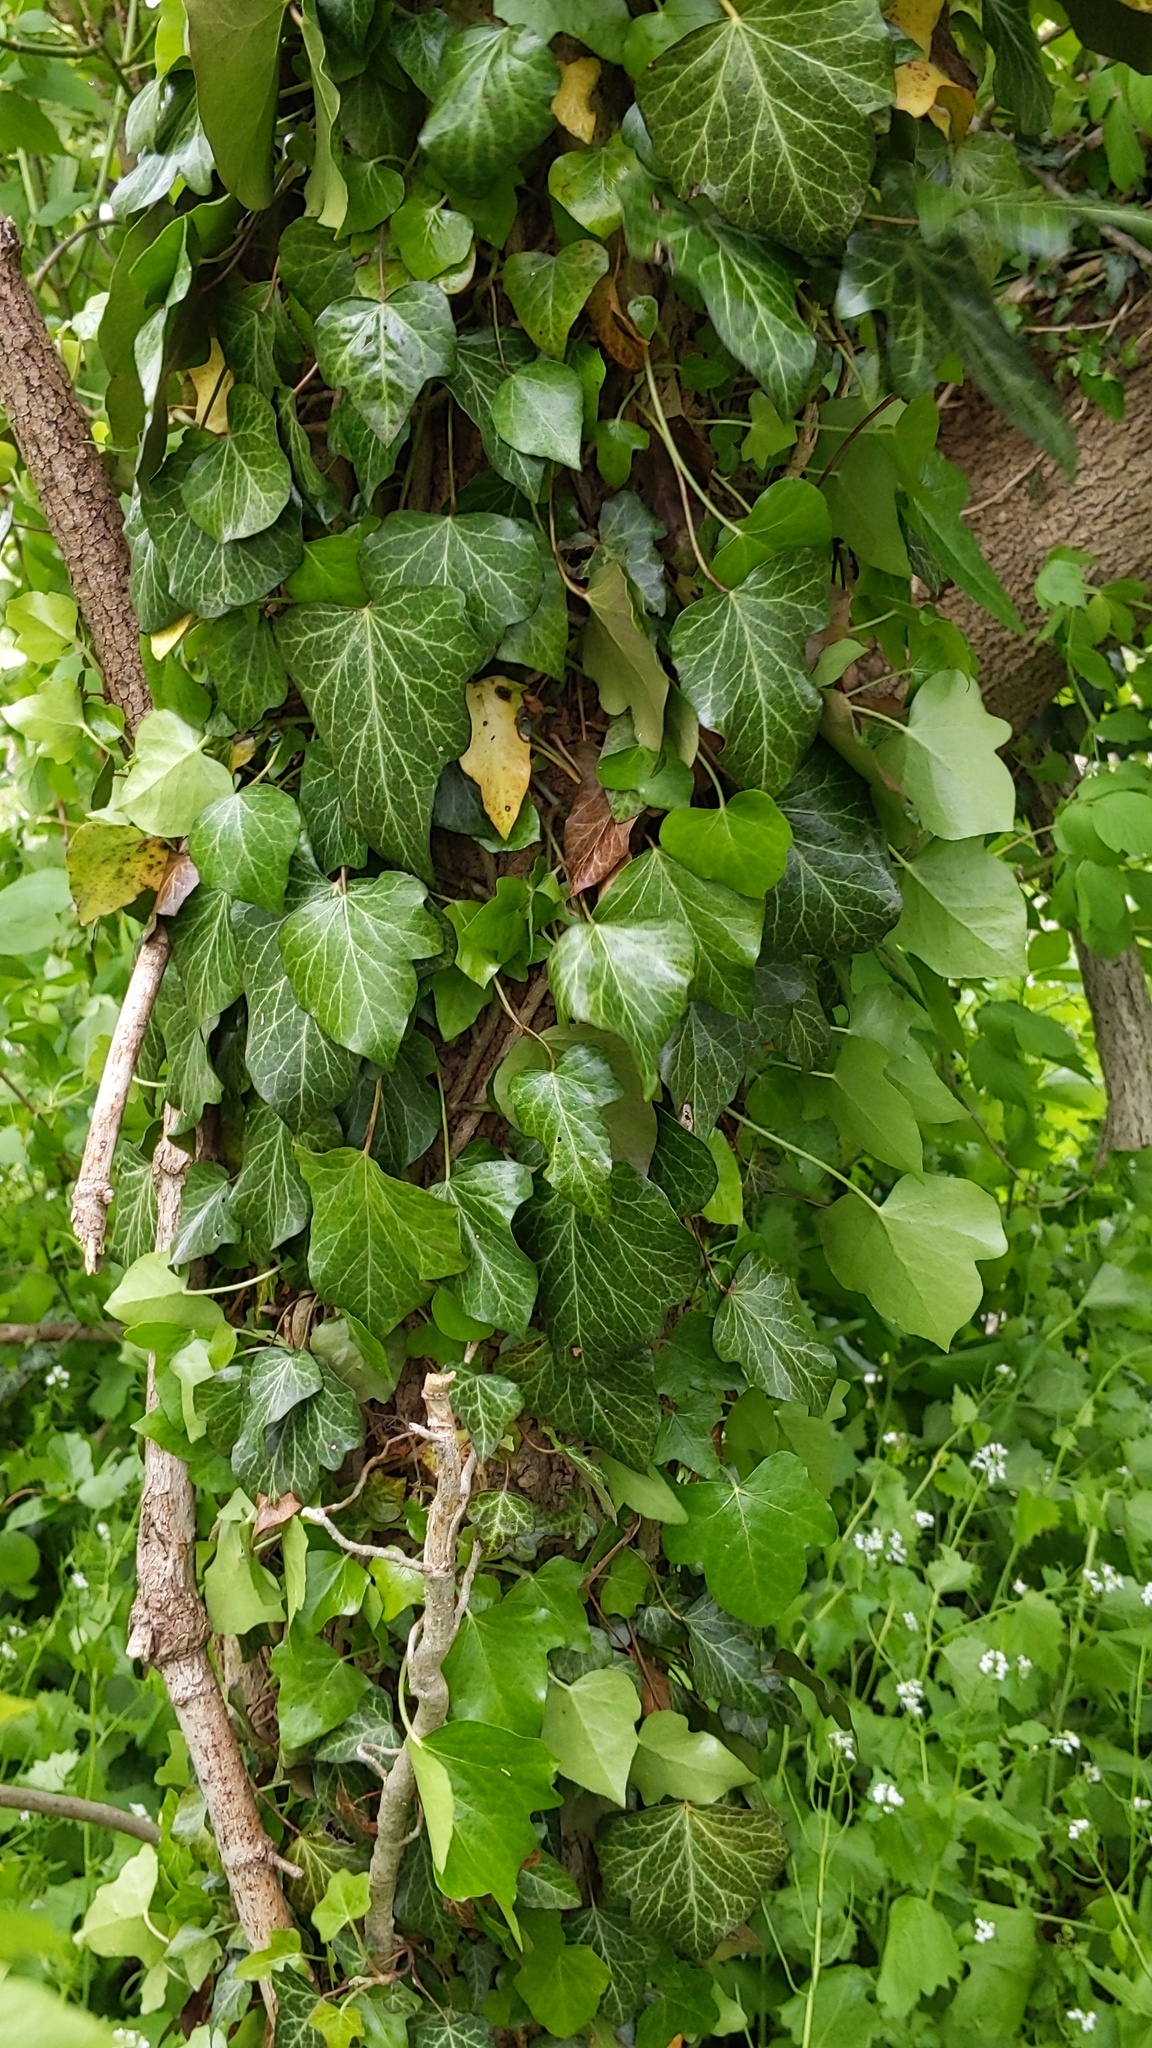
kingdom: Plantae
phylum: Tracheophyta
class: Magnoliopsida
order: Apiales
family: Araliaceae
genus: Hedera
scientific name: Hedera
